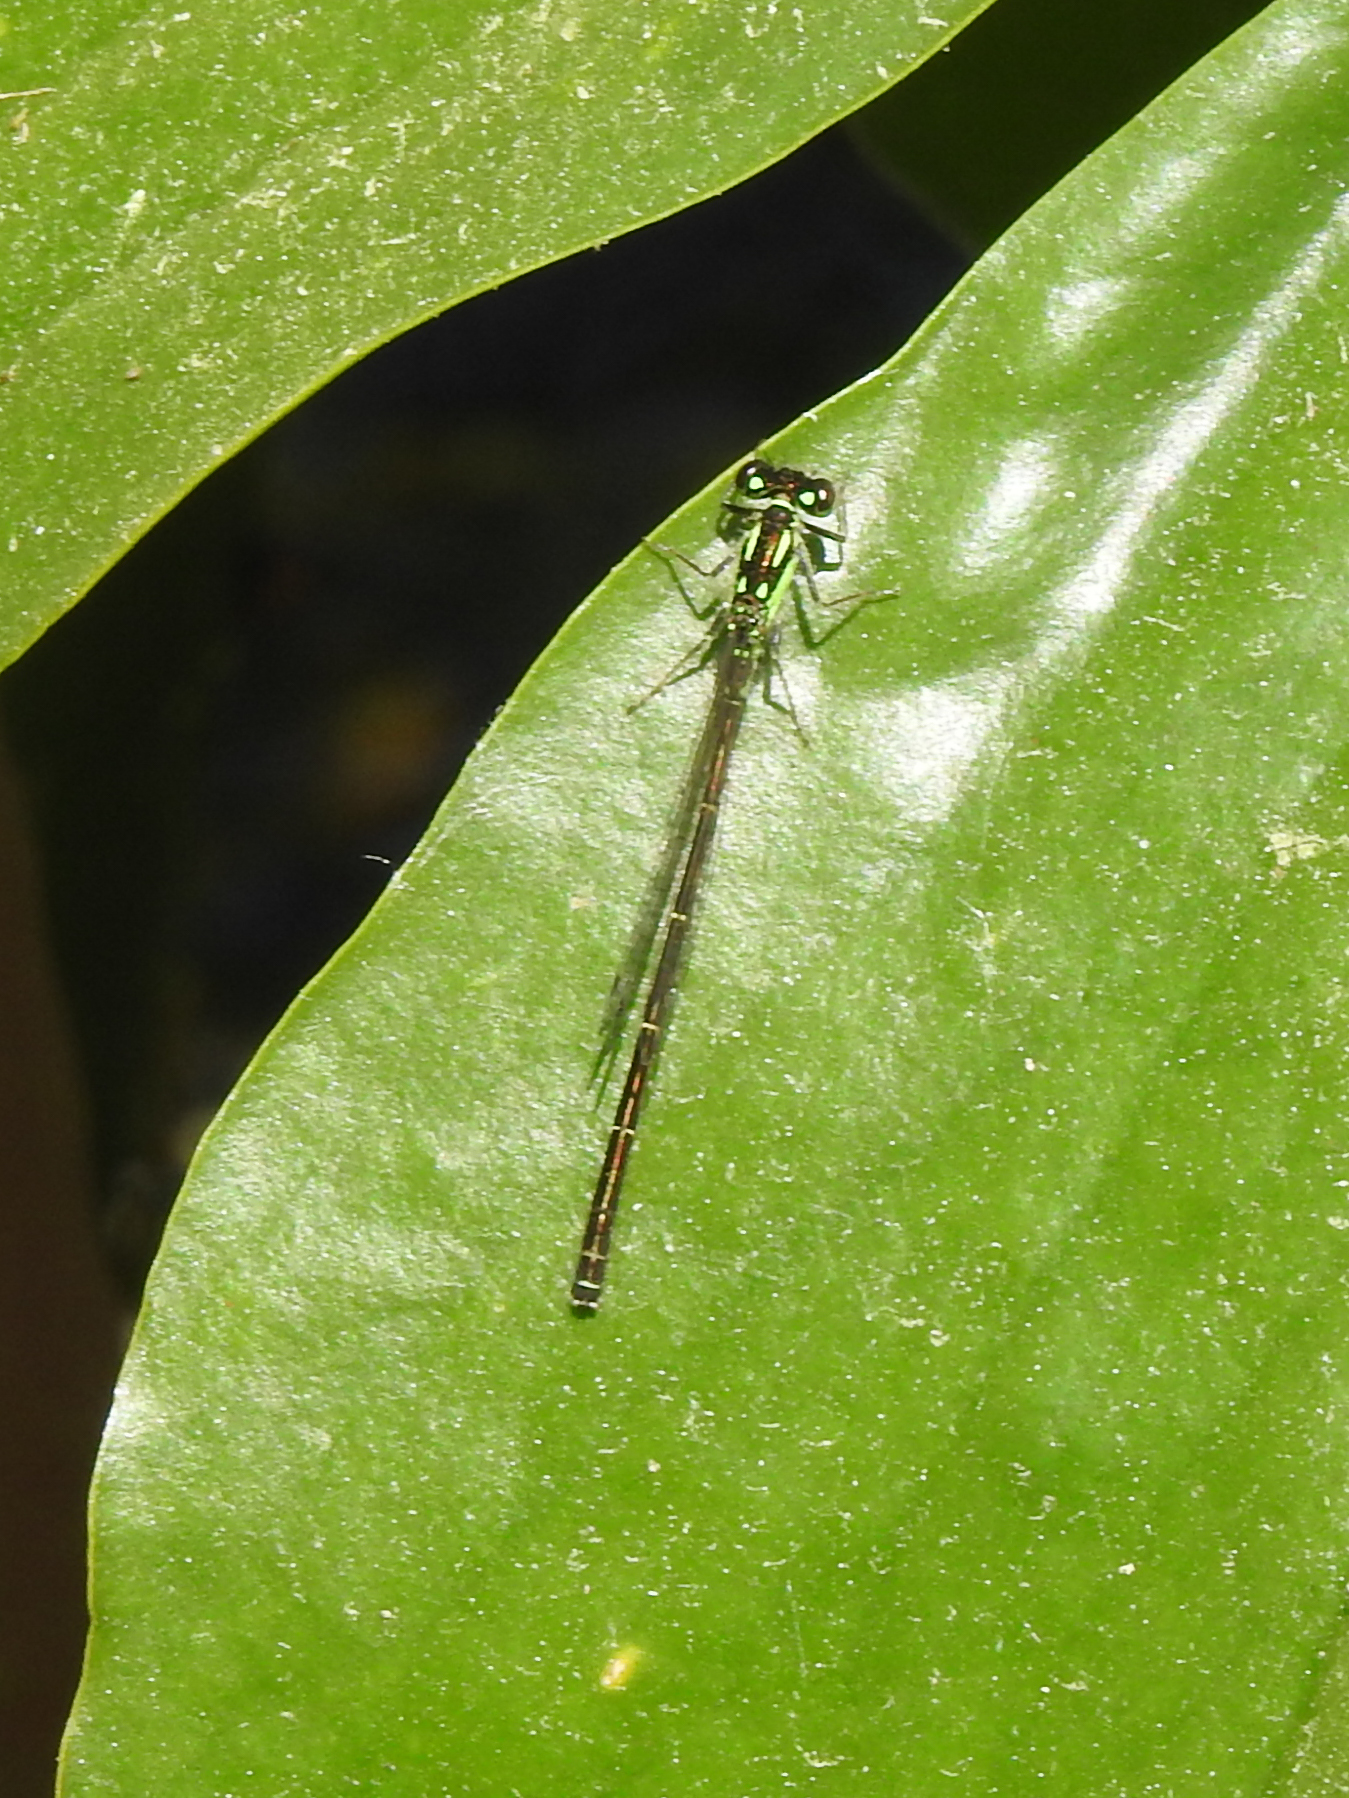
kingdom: Animalia
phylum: Arthropoda
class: Insecta
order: Odonata
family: Coenagrionidae
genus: Ischnura
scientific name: Ischnura posita
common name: Fragile forktail
